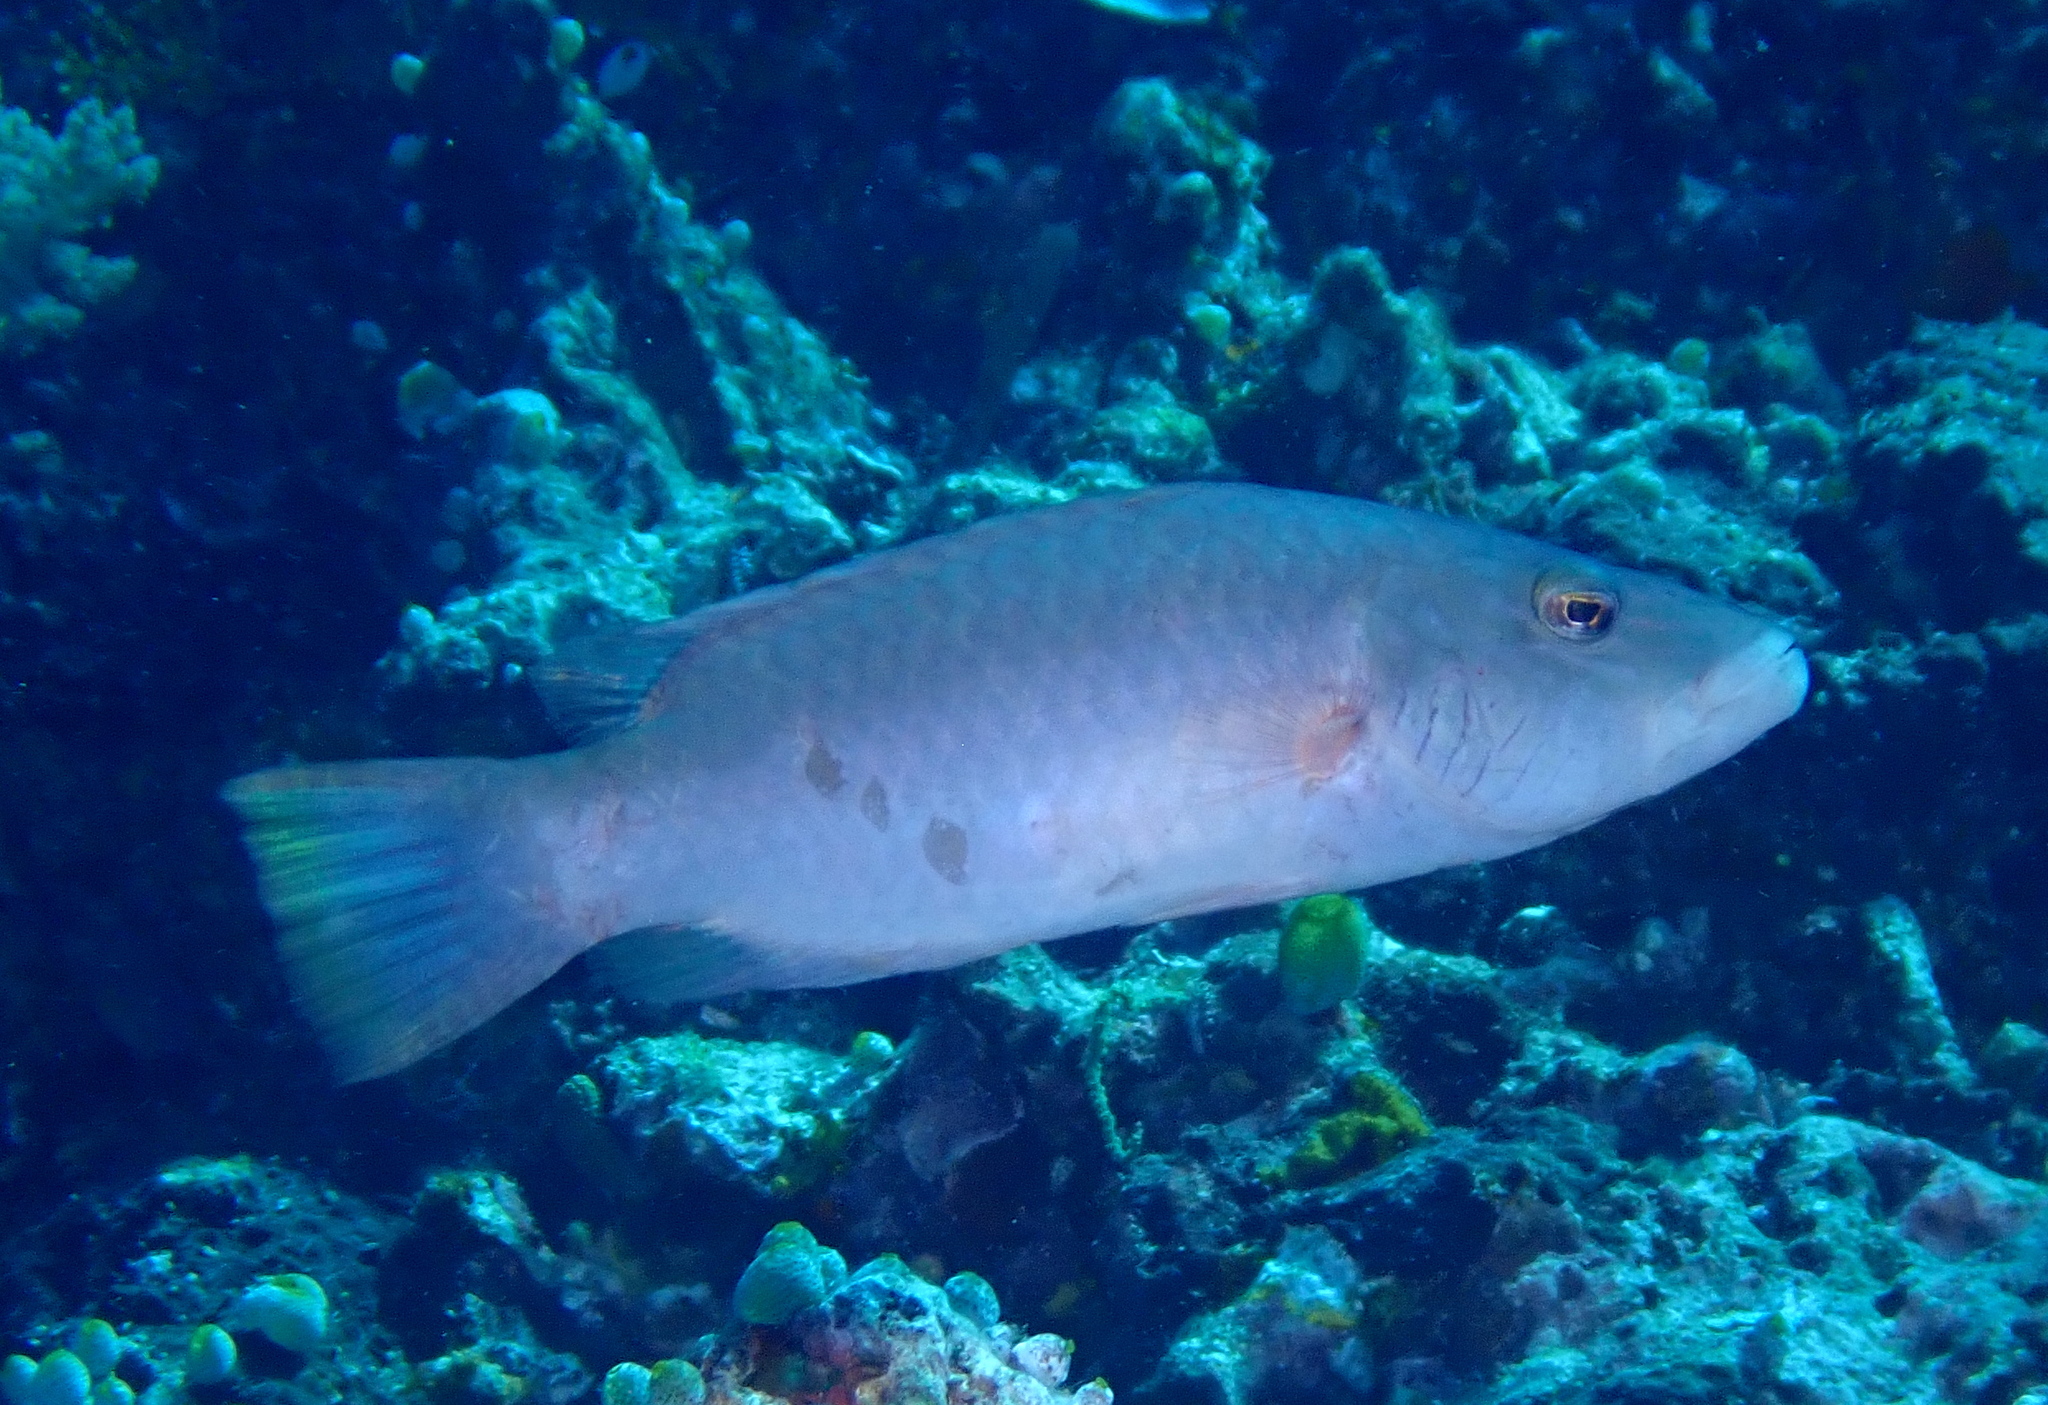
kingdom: Animalia
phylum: Chordata
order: Perciformes
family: Labridae
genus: Oxycheilinus
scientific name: Oxycheilinus digramma
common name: Bandcheek wrasse
